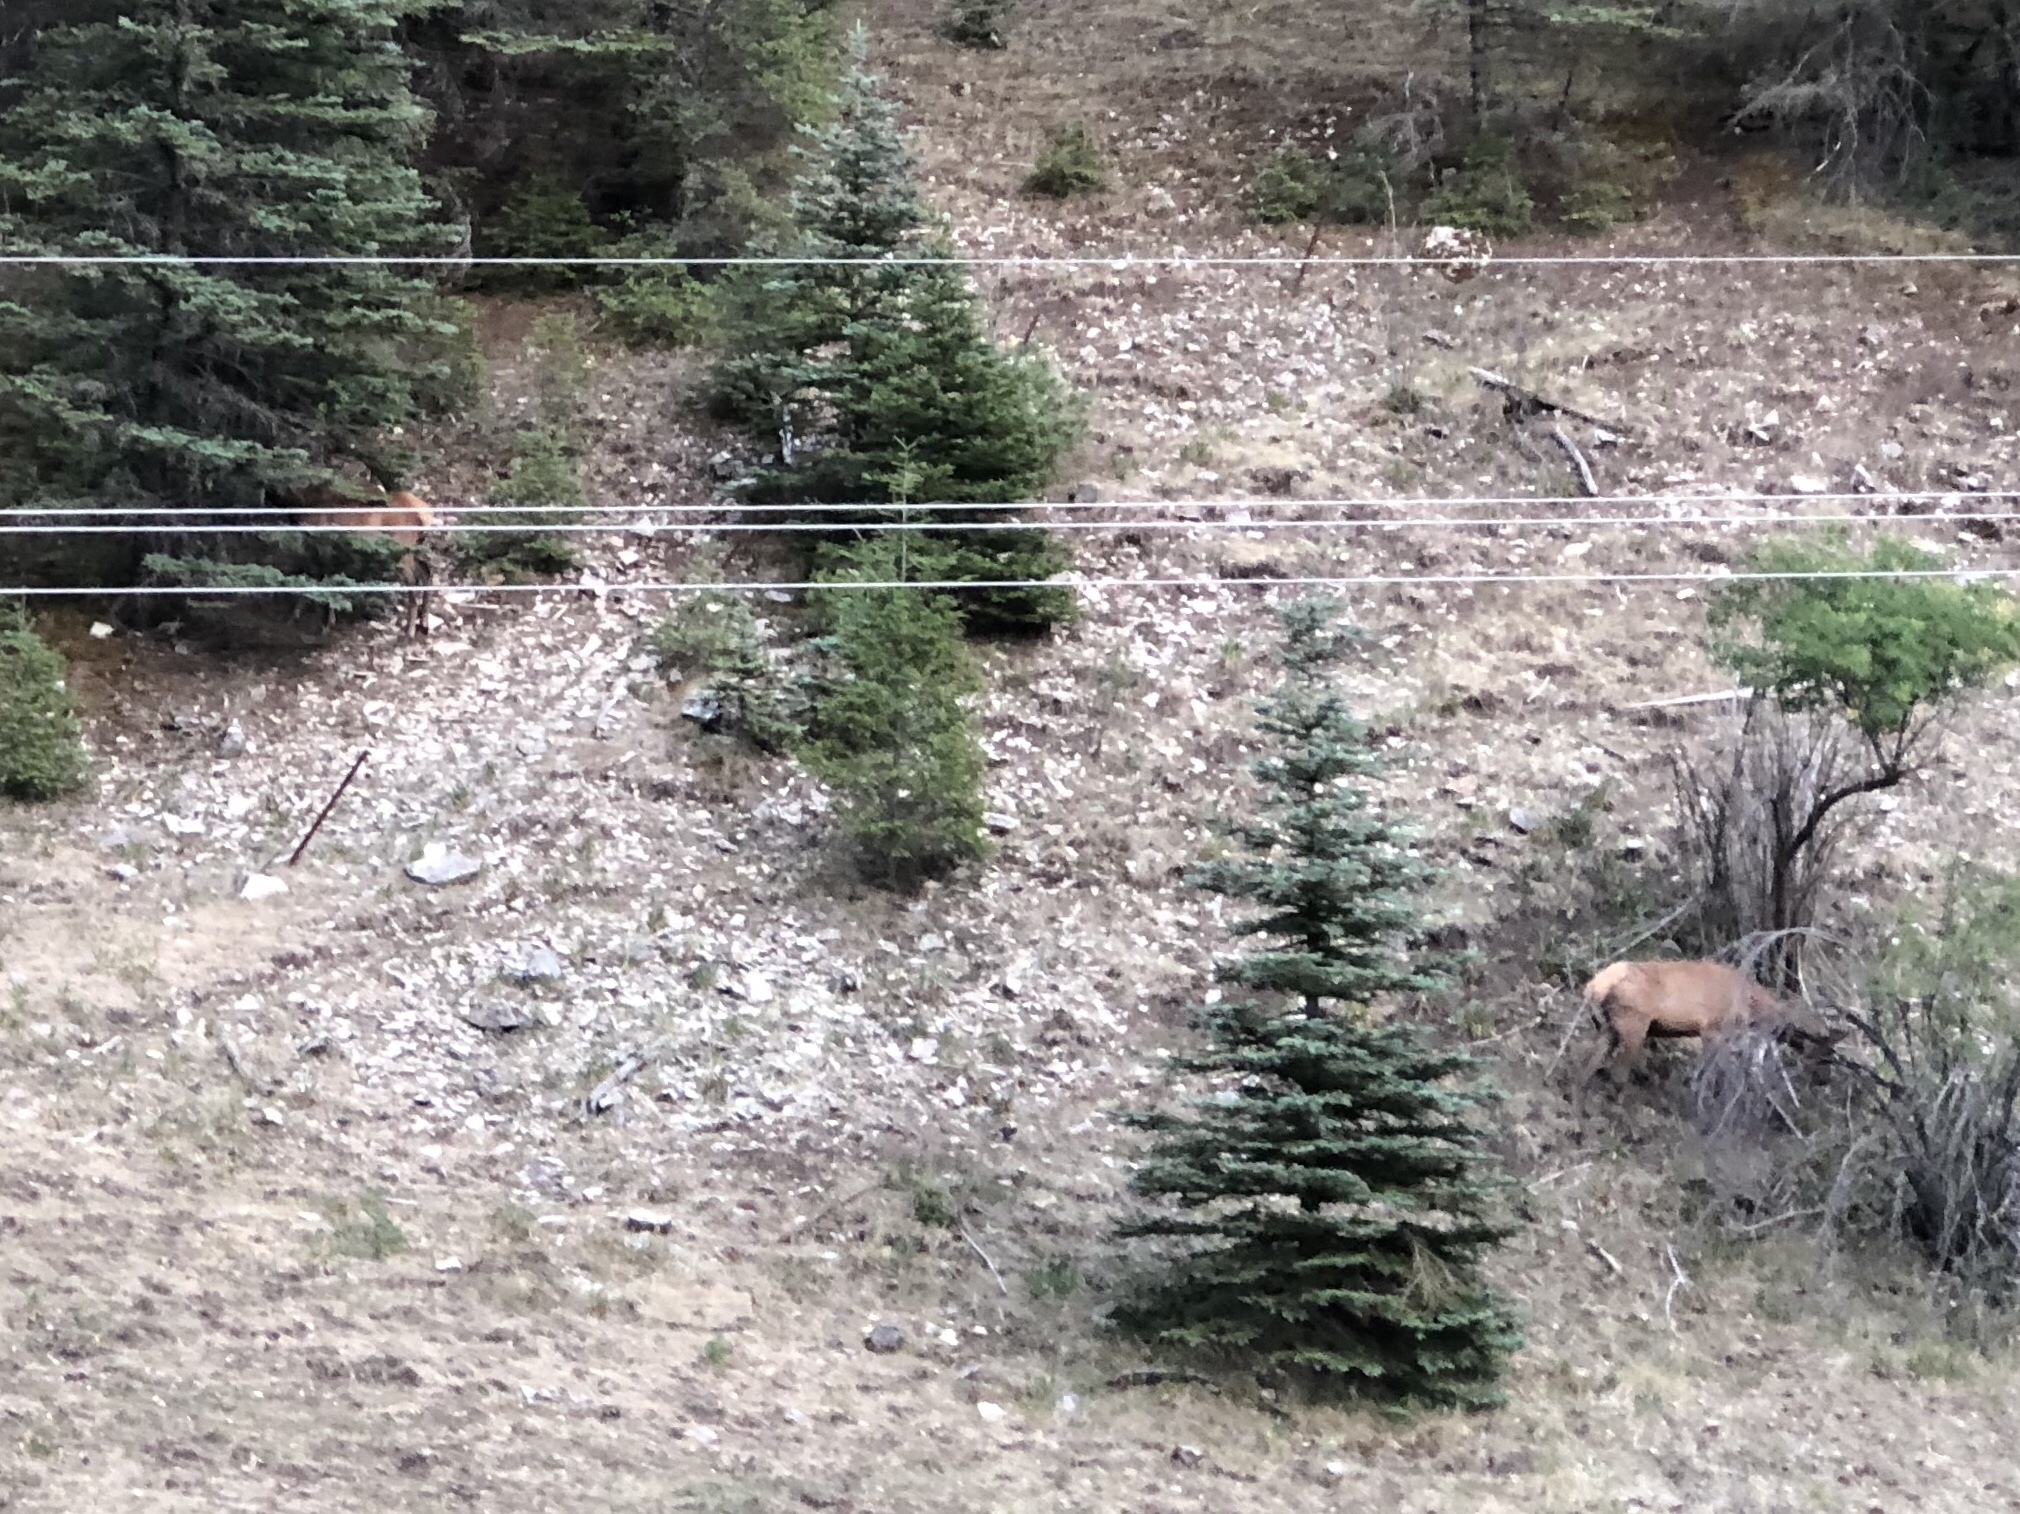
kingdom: Animalia
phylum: Chordata
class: Mammalia
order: Artiodactyla
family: Cervidae
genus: Cervus
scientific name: Cervus elaphus
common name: Red deer
